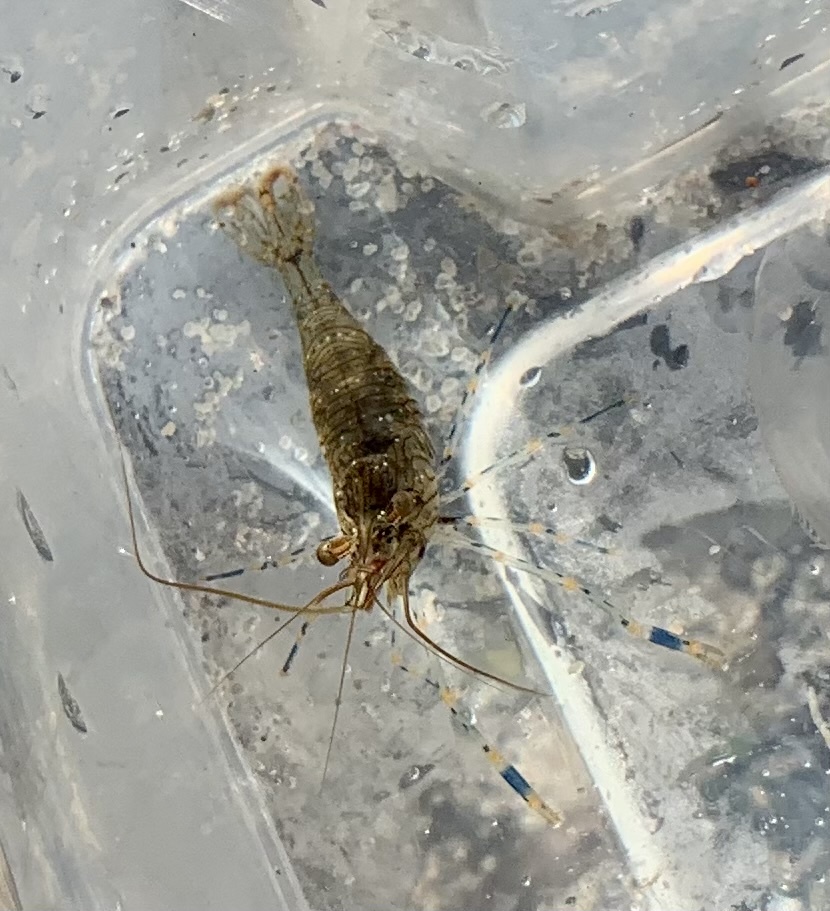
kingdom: Animalia
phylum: Arthropoda
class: Malacostraca
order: Decapoda
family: Palaemonidae
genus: Palaemon
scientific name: Palaemon elegans
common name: Grass prawm
